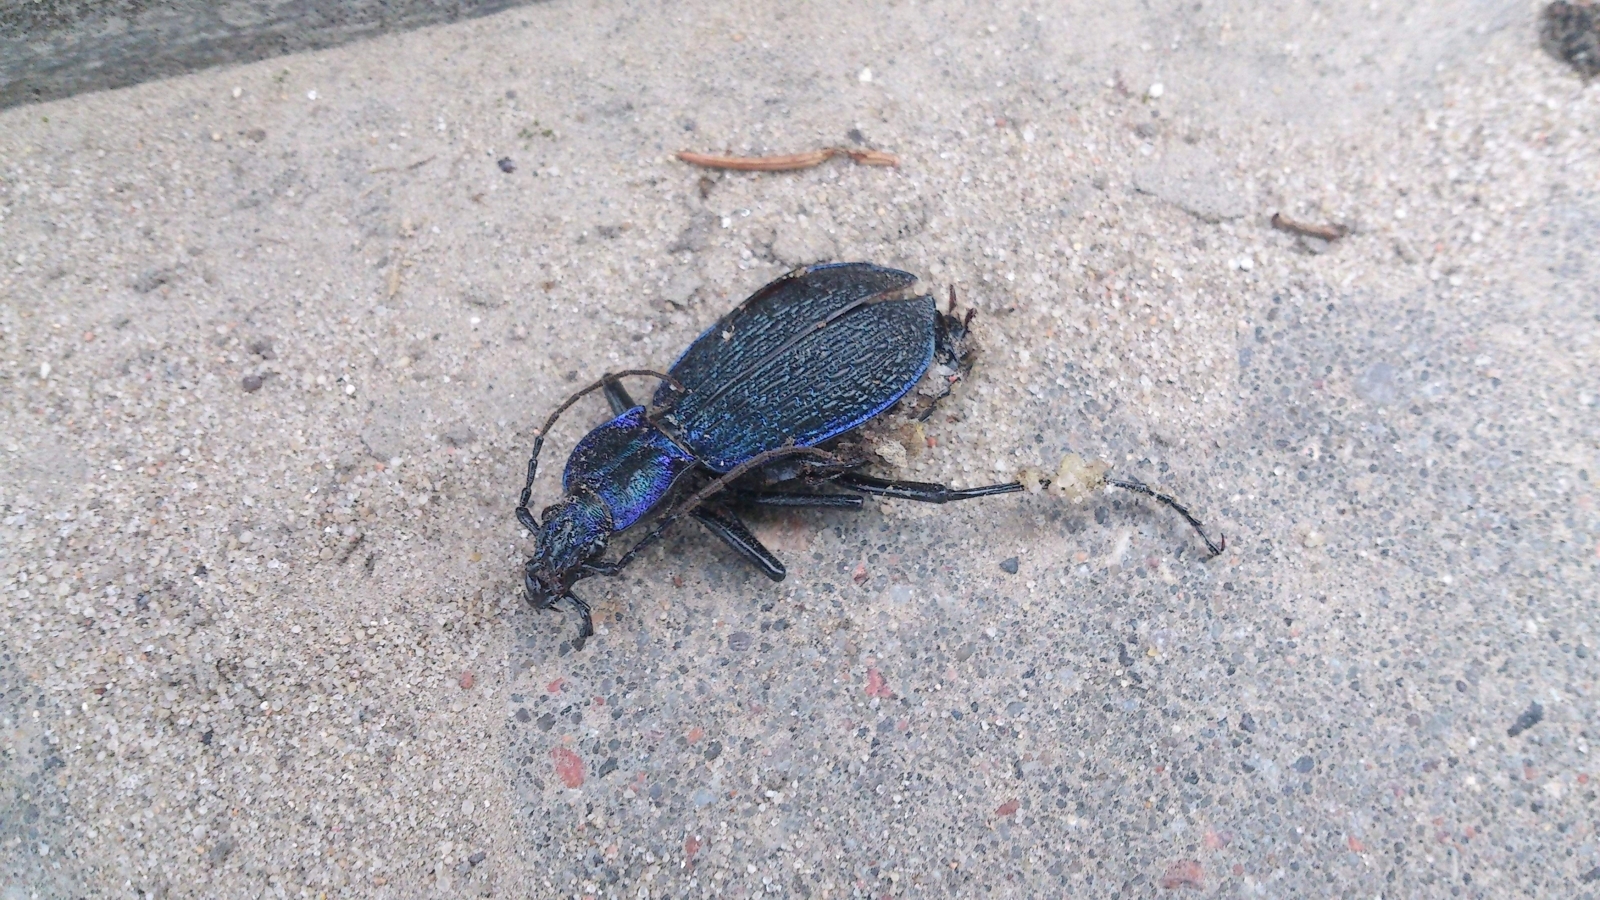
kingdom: Animalia
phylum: Arthropoda
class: Insecta
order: Coleoptera
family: Carabidae
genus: Carabus
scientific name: Carabus intricatus
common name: Blue ground beetle
